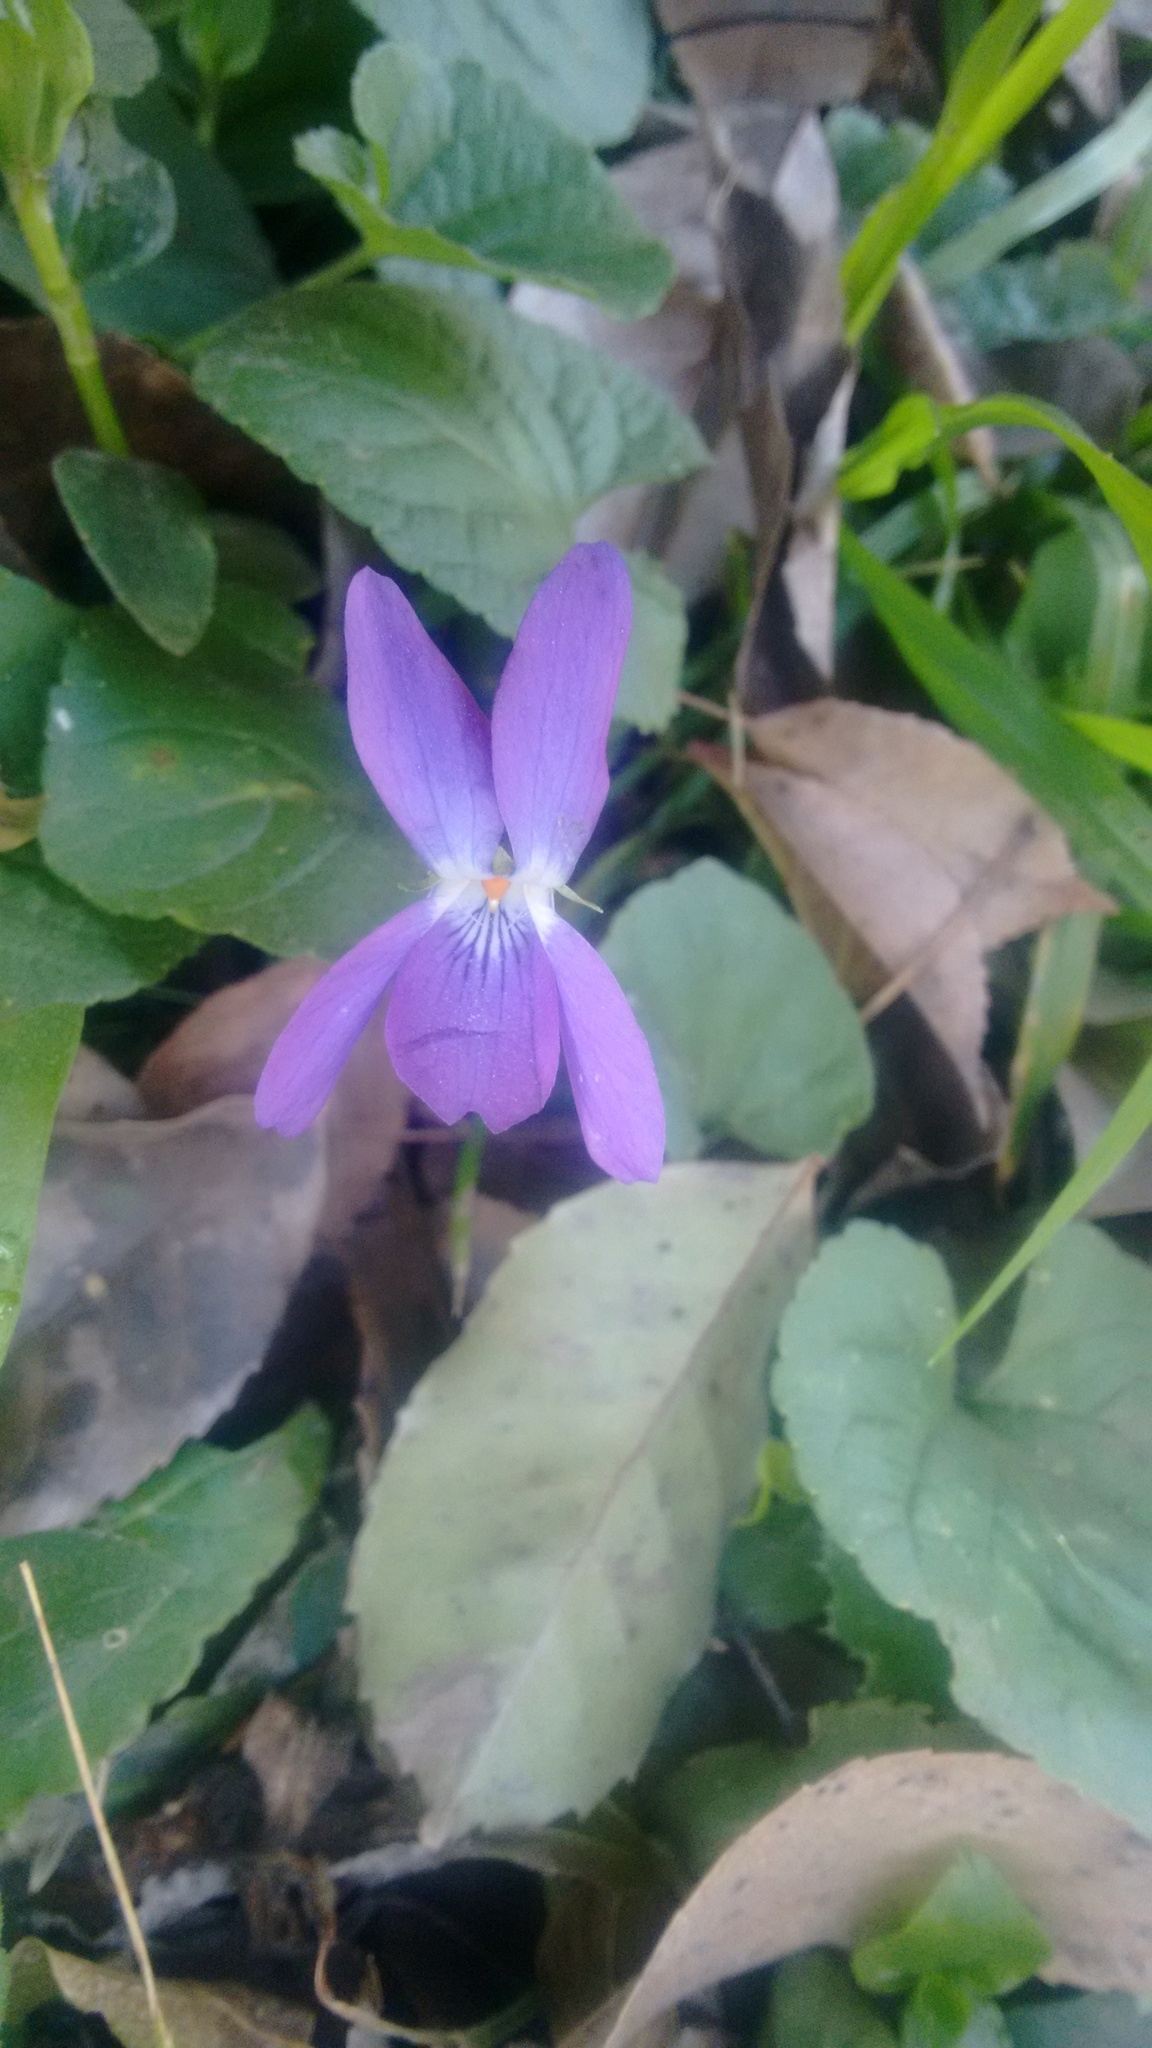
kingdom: Plantae
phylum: Tracheophyta
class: Magnoliopsida
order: Malpighiales
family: Violaceae
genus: Viola
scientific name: Viola odorata
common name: Sweet violet
